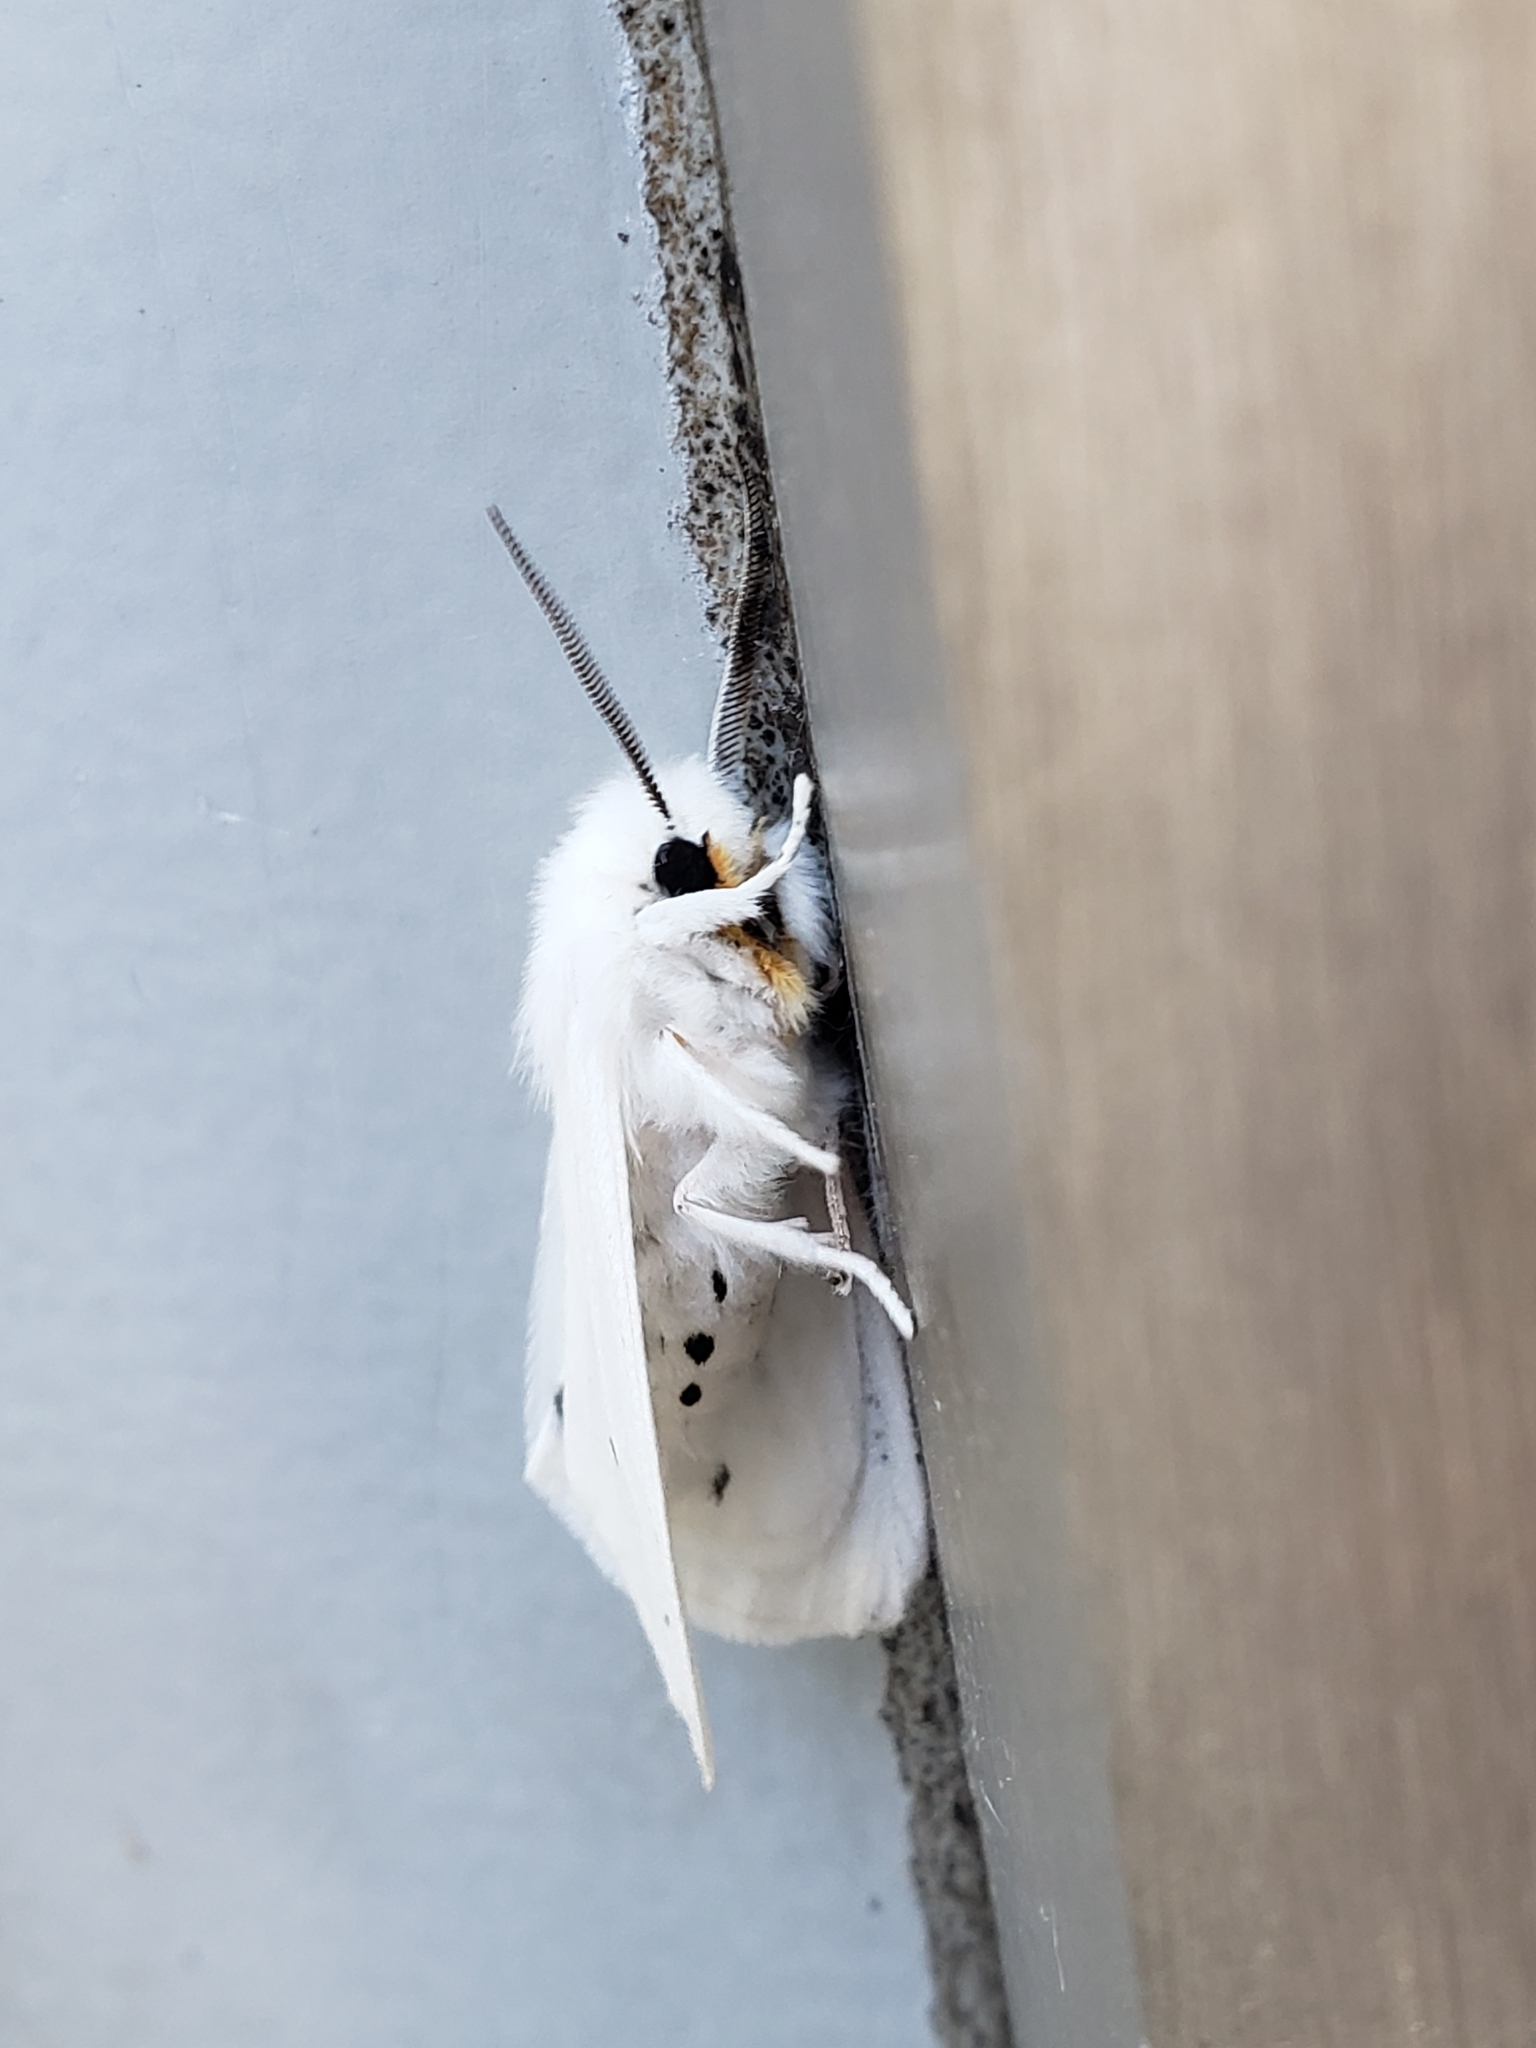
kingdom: Animalia
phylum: Arthropoda
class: Insecta
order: Lepidoptera
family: Erebidae
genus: Spilosoma
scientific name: Spilosoma virginica
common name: Virginia tiger moth
